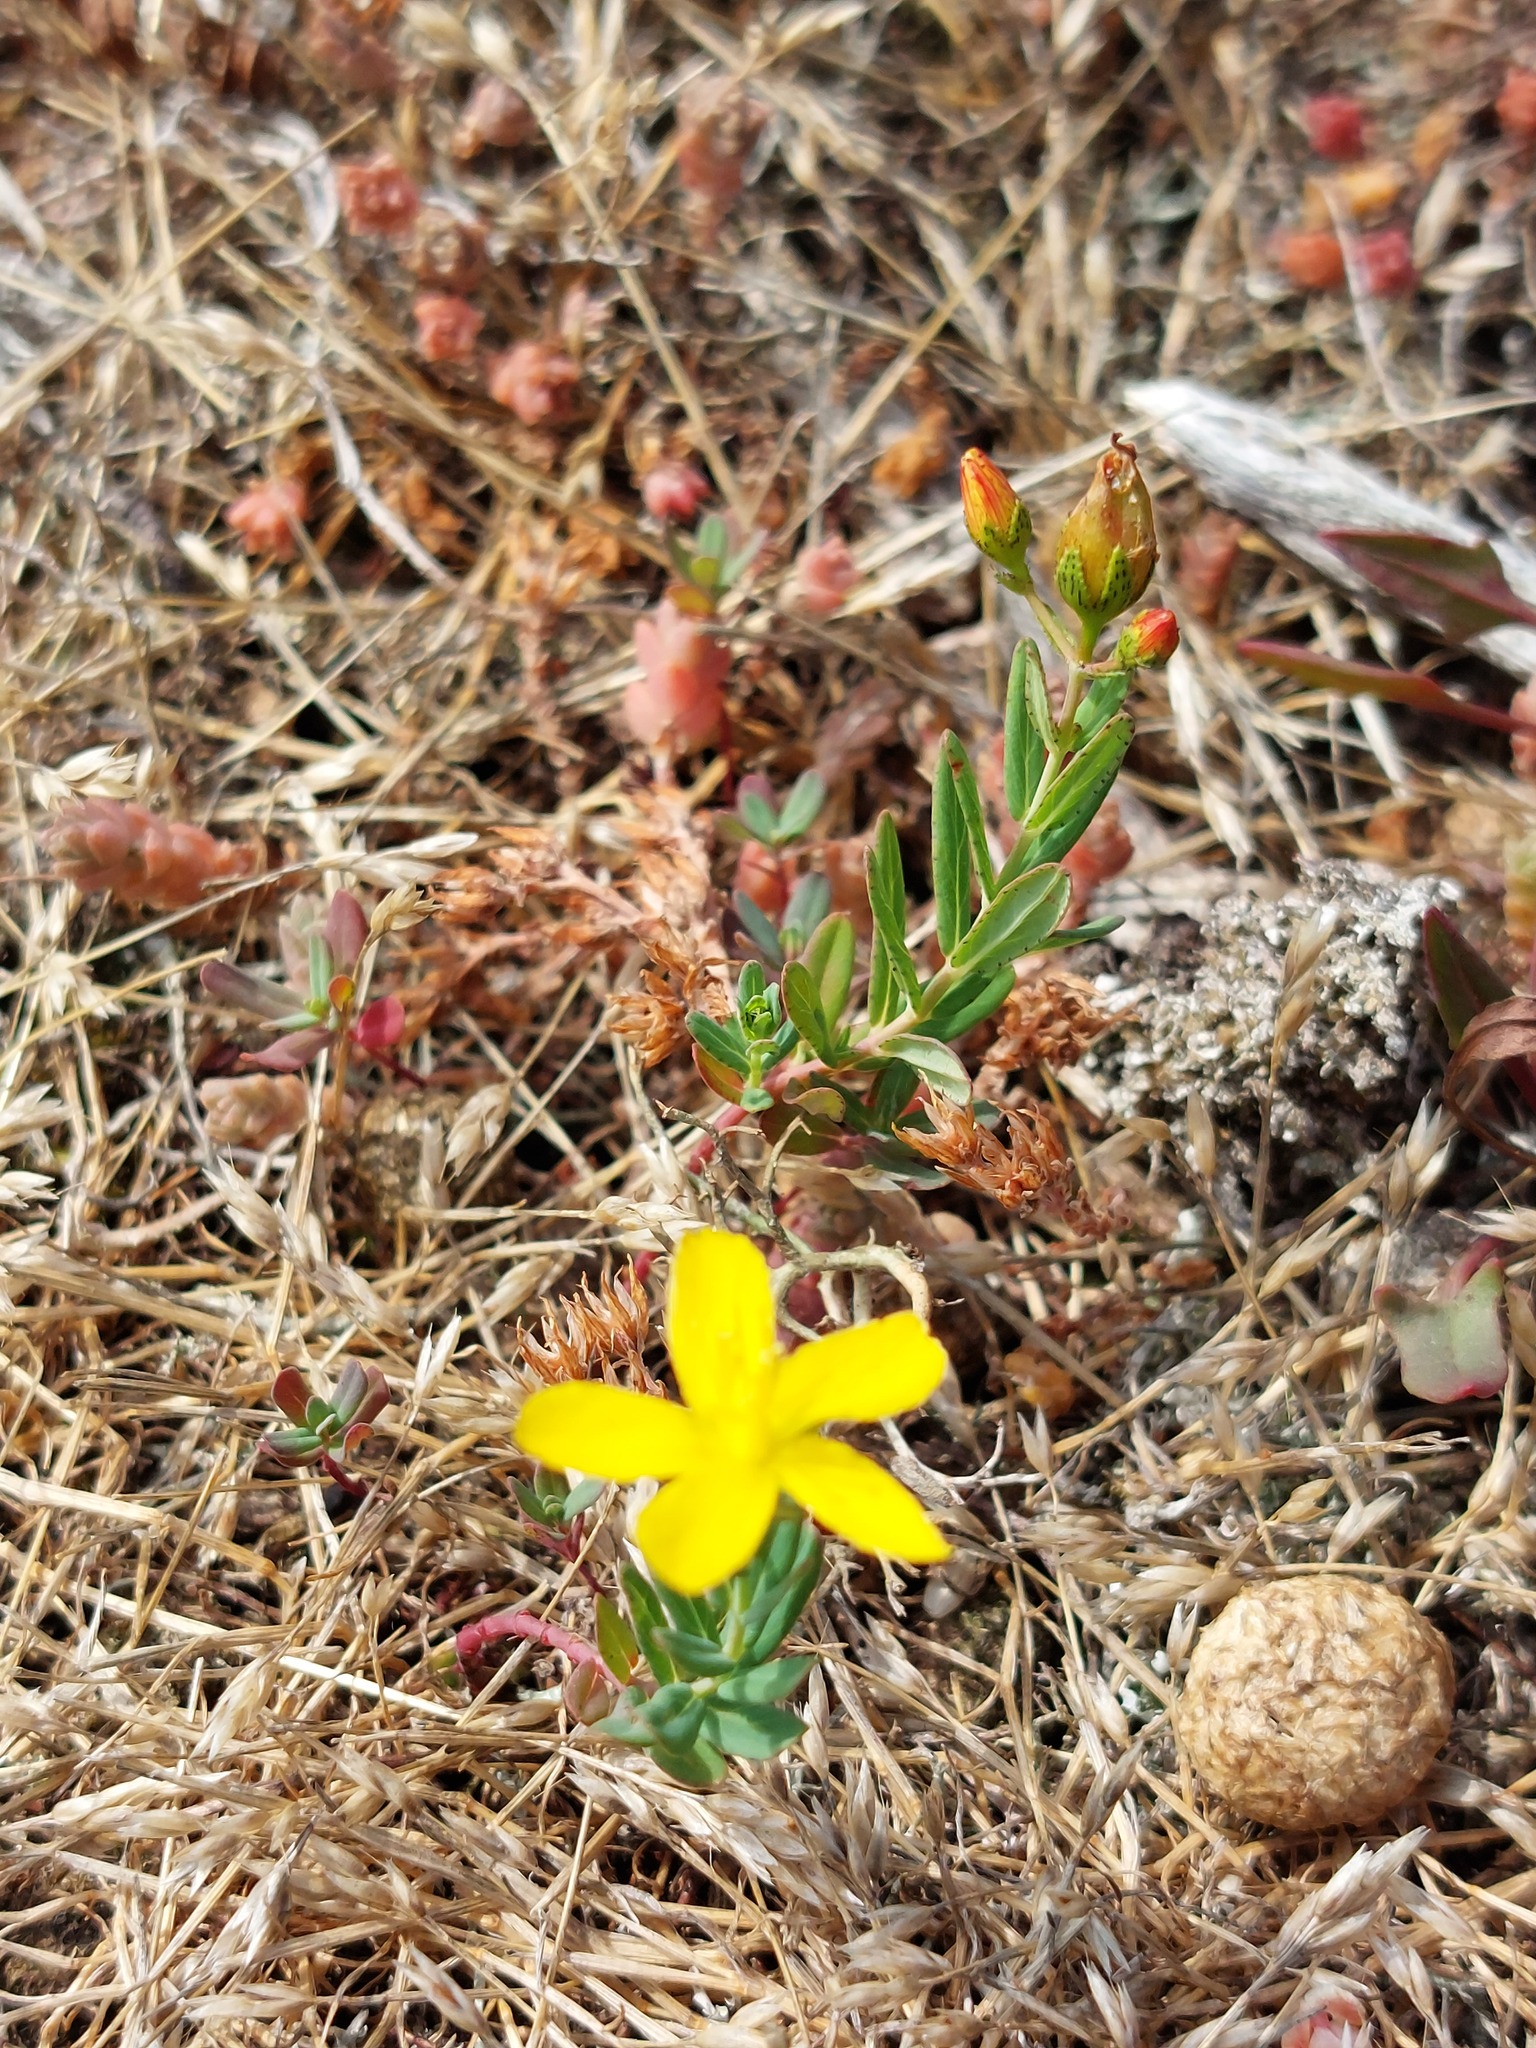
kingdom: Plantae
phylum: Tracheophyta
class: Magnoliopsida
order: Malpighiales
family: Hypericaceae
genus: Hypericum
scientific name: Hypericum linariifolium
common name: Toadflax-leaved st. john's-wort
